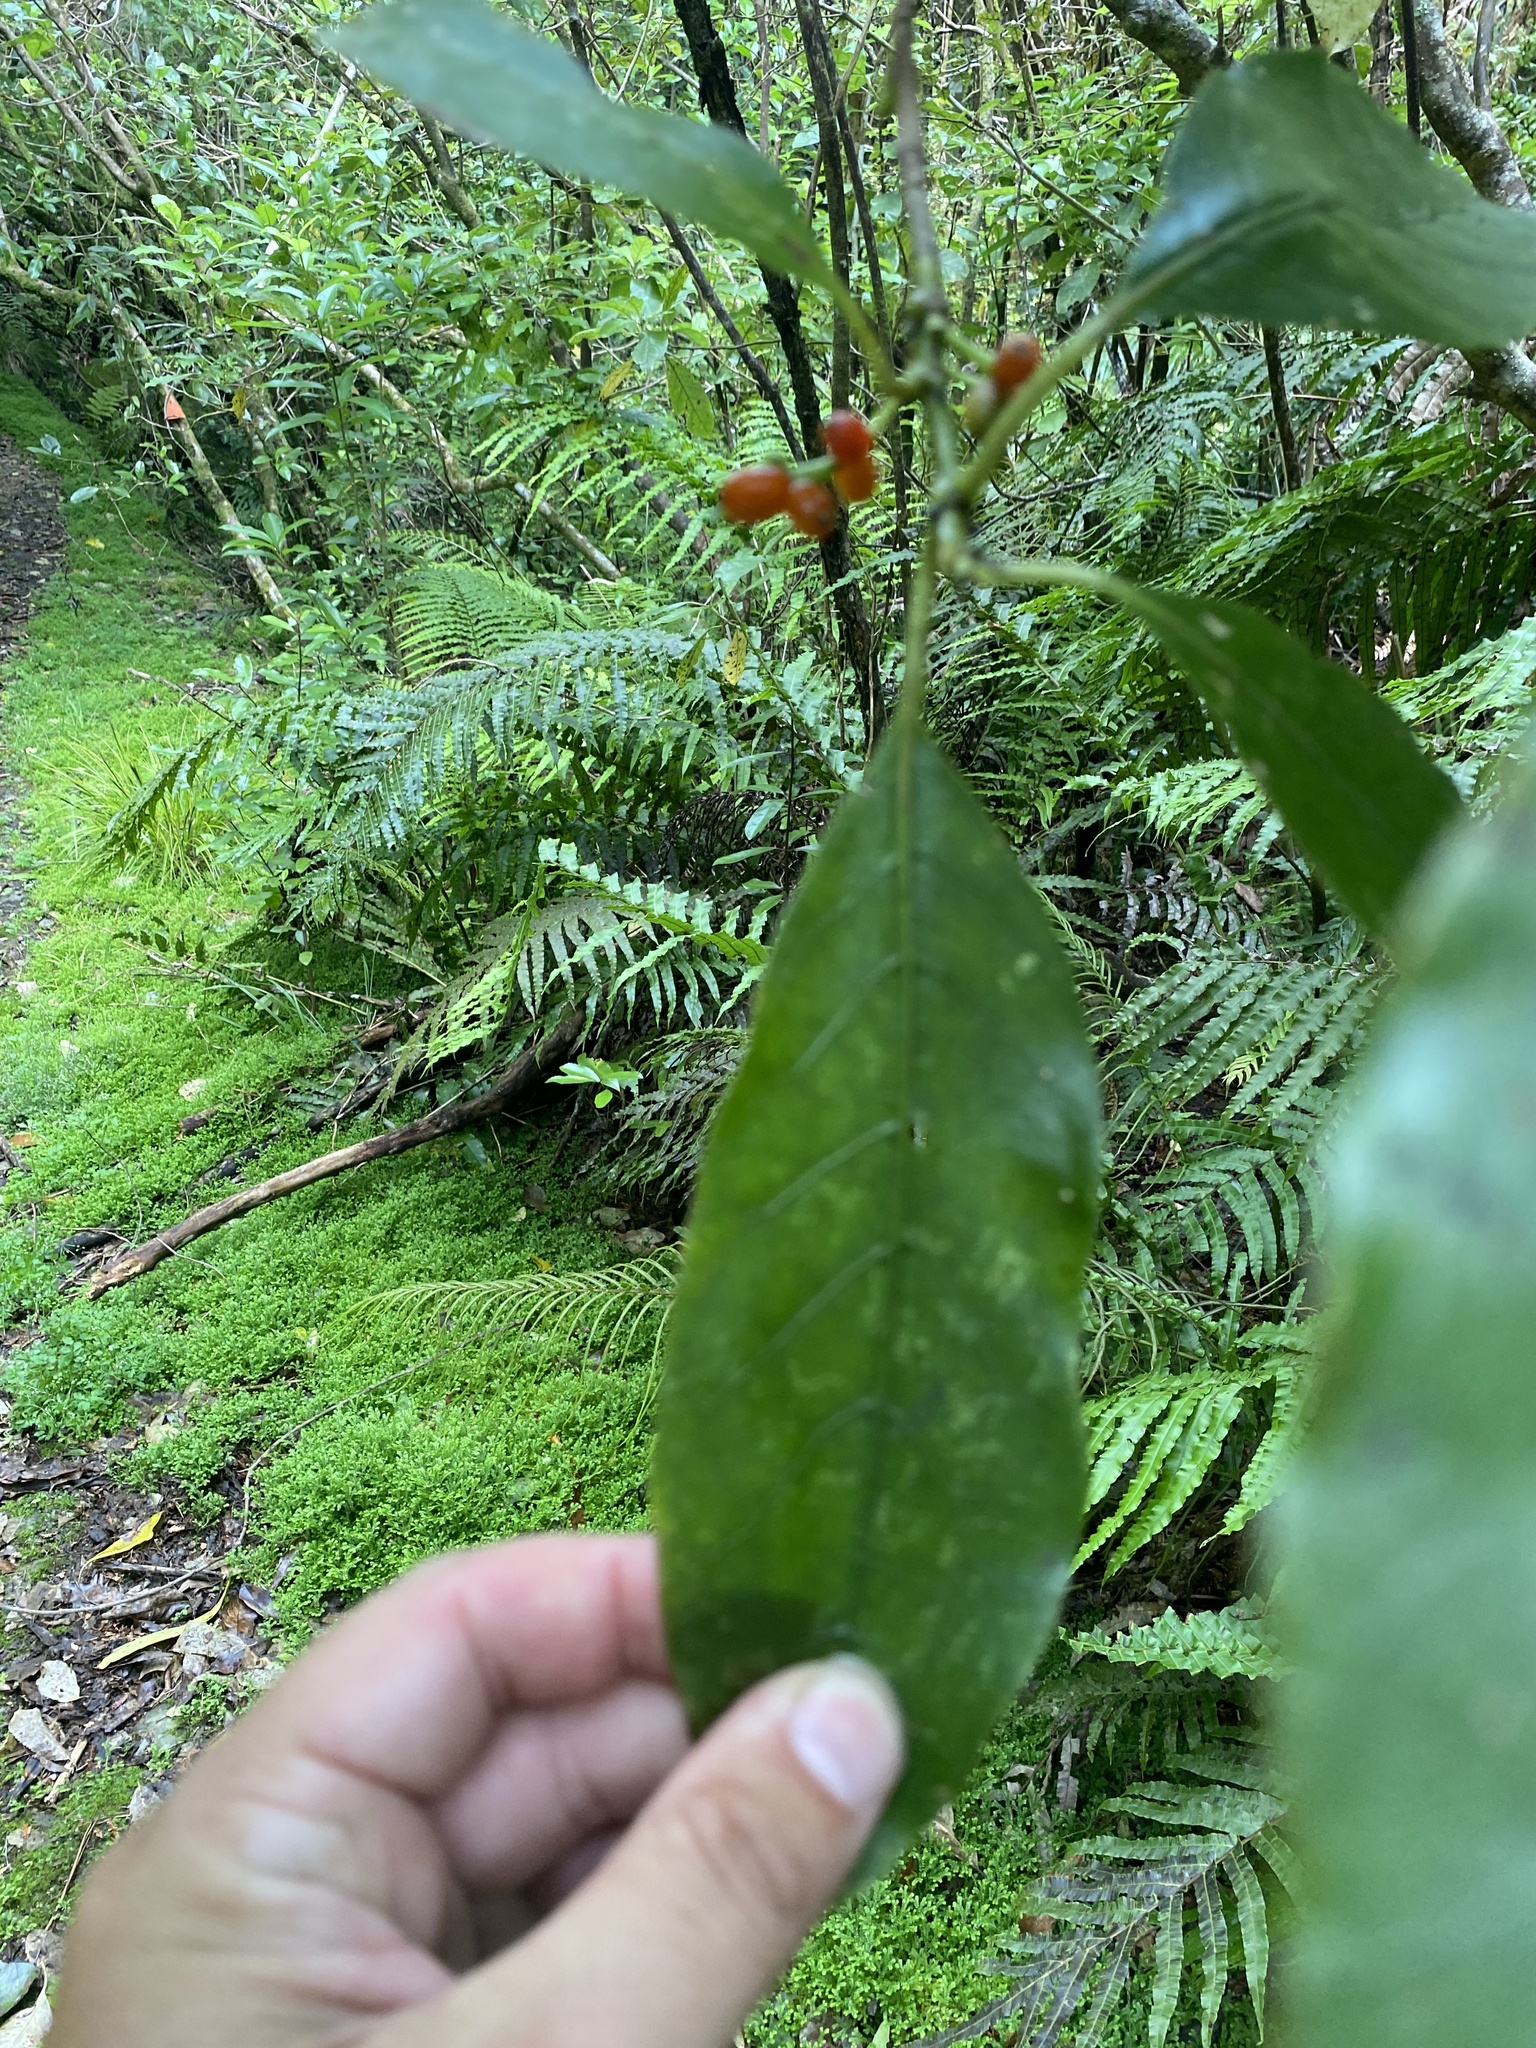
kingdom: Plantae
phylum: Tracheophyta
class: Magnoliopsida
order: Gentianales
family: Rubiaceae
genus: Coprosma
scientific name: Coprosma autumnalis
